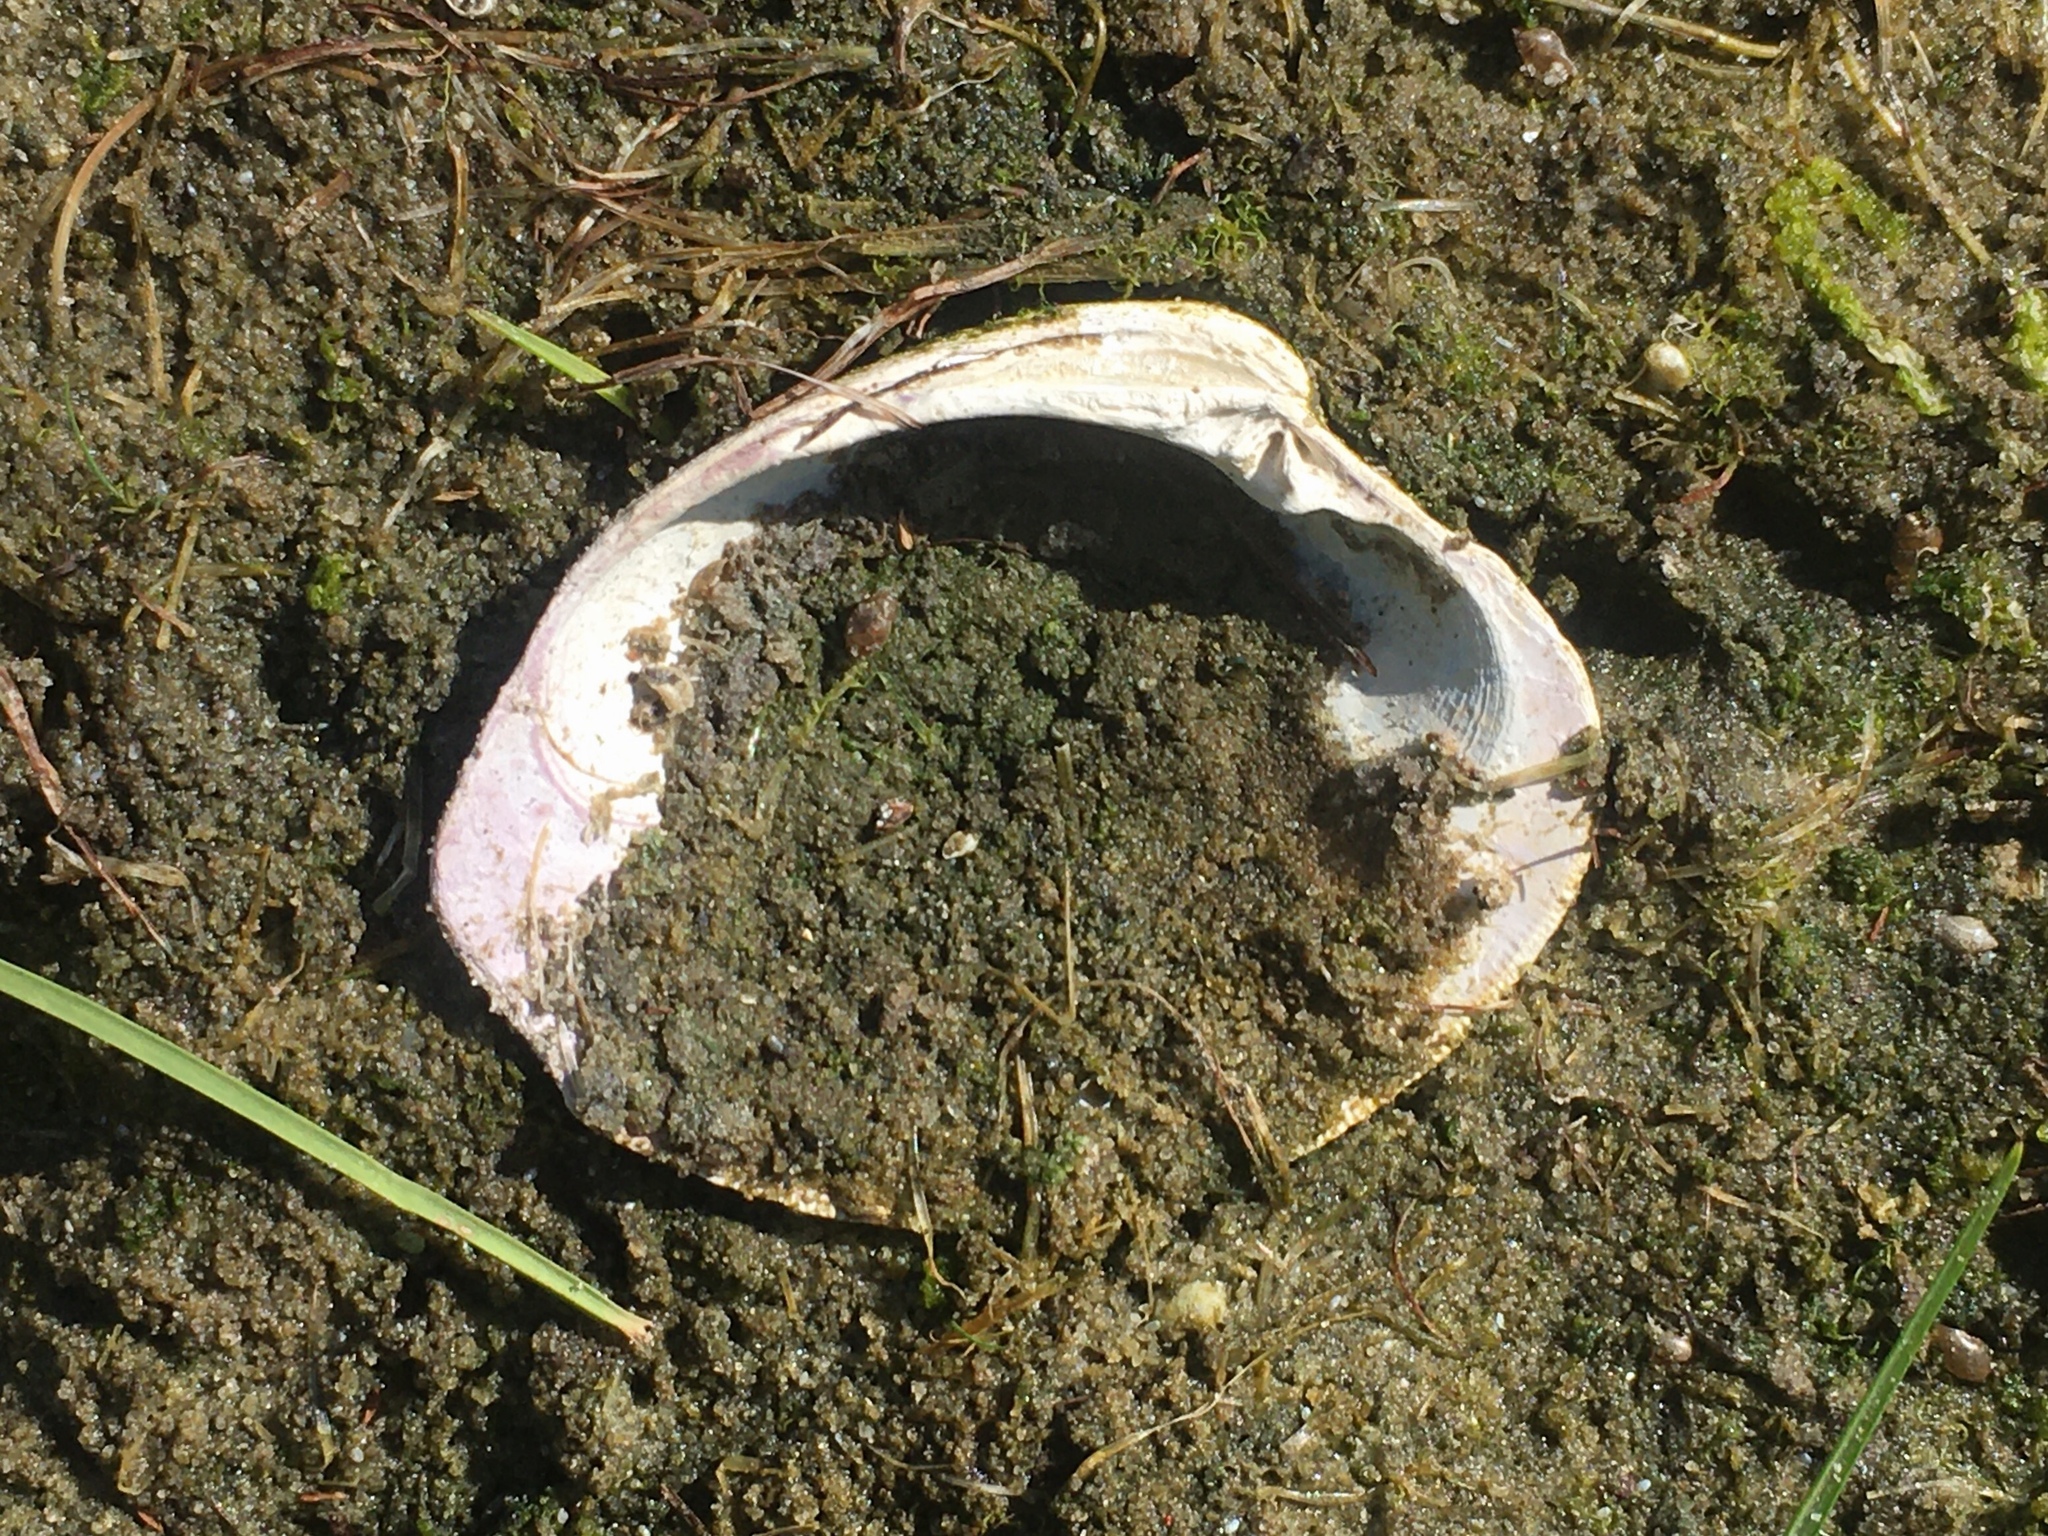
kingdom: Animalia
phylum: Mollusca
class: Bivalvia
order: Venerida
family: Veneridae
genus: Mercenaria
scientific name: Mercenaria mercenaria
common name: American hard-shelled clam
